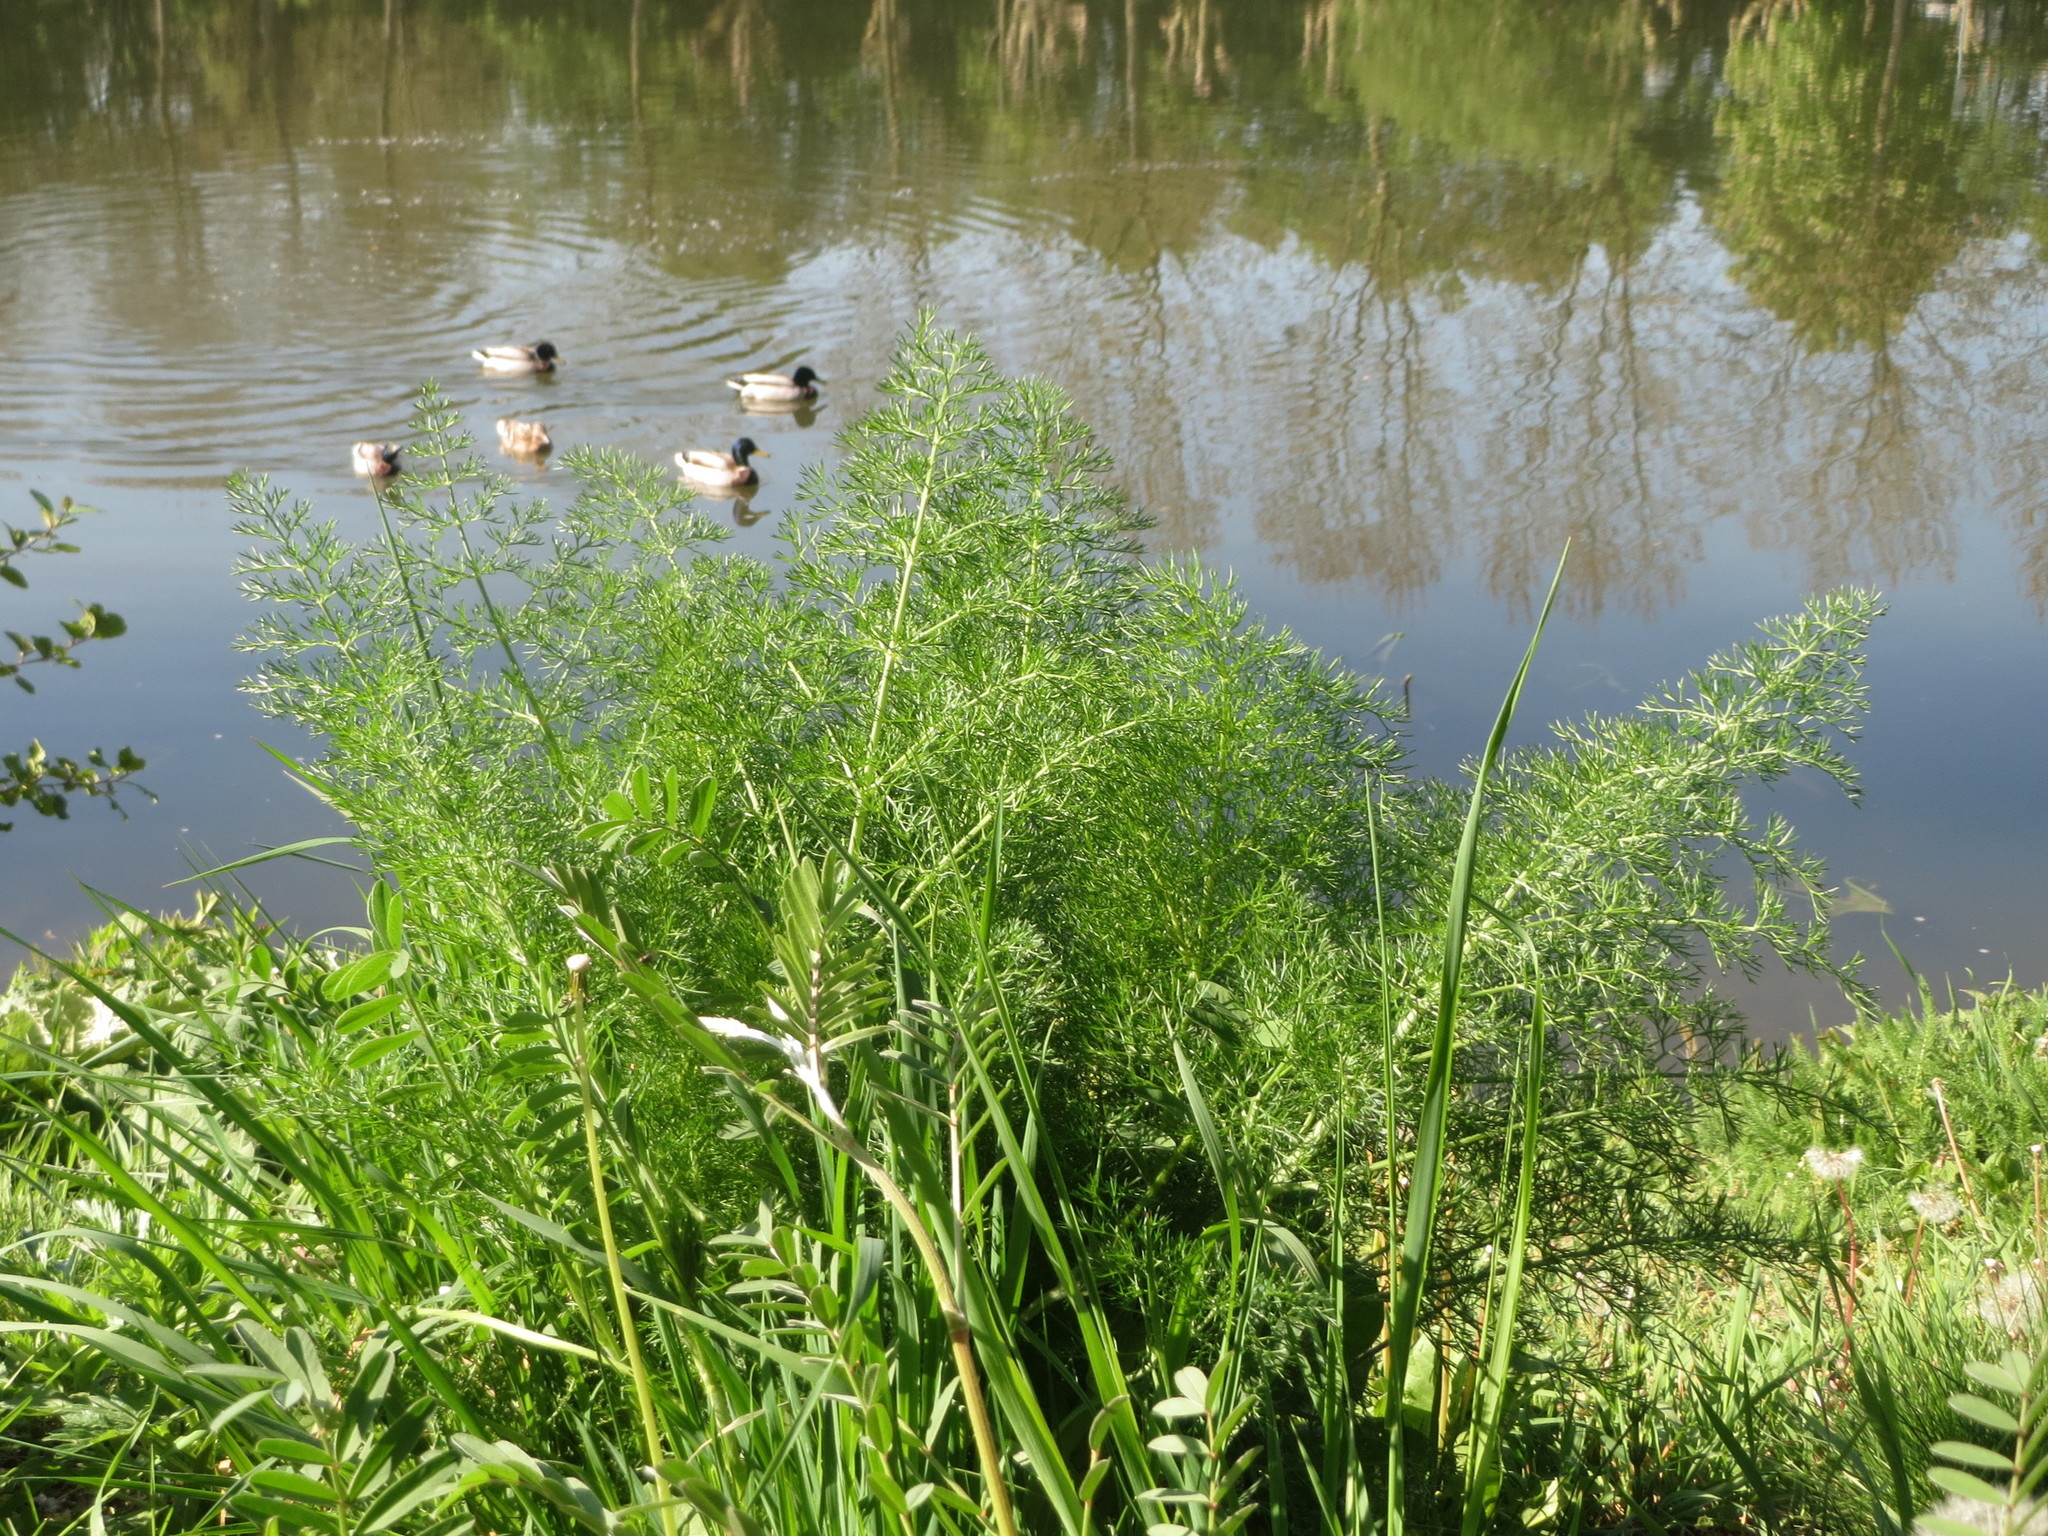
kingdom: Animalia
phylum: Chordata
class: Aves
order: Anseriformes
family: Anatidae
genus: Anas
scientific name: Anas platyrhynchos
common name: Mallard
